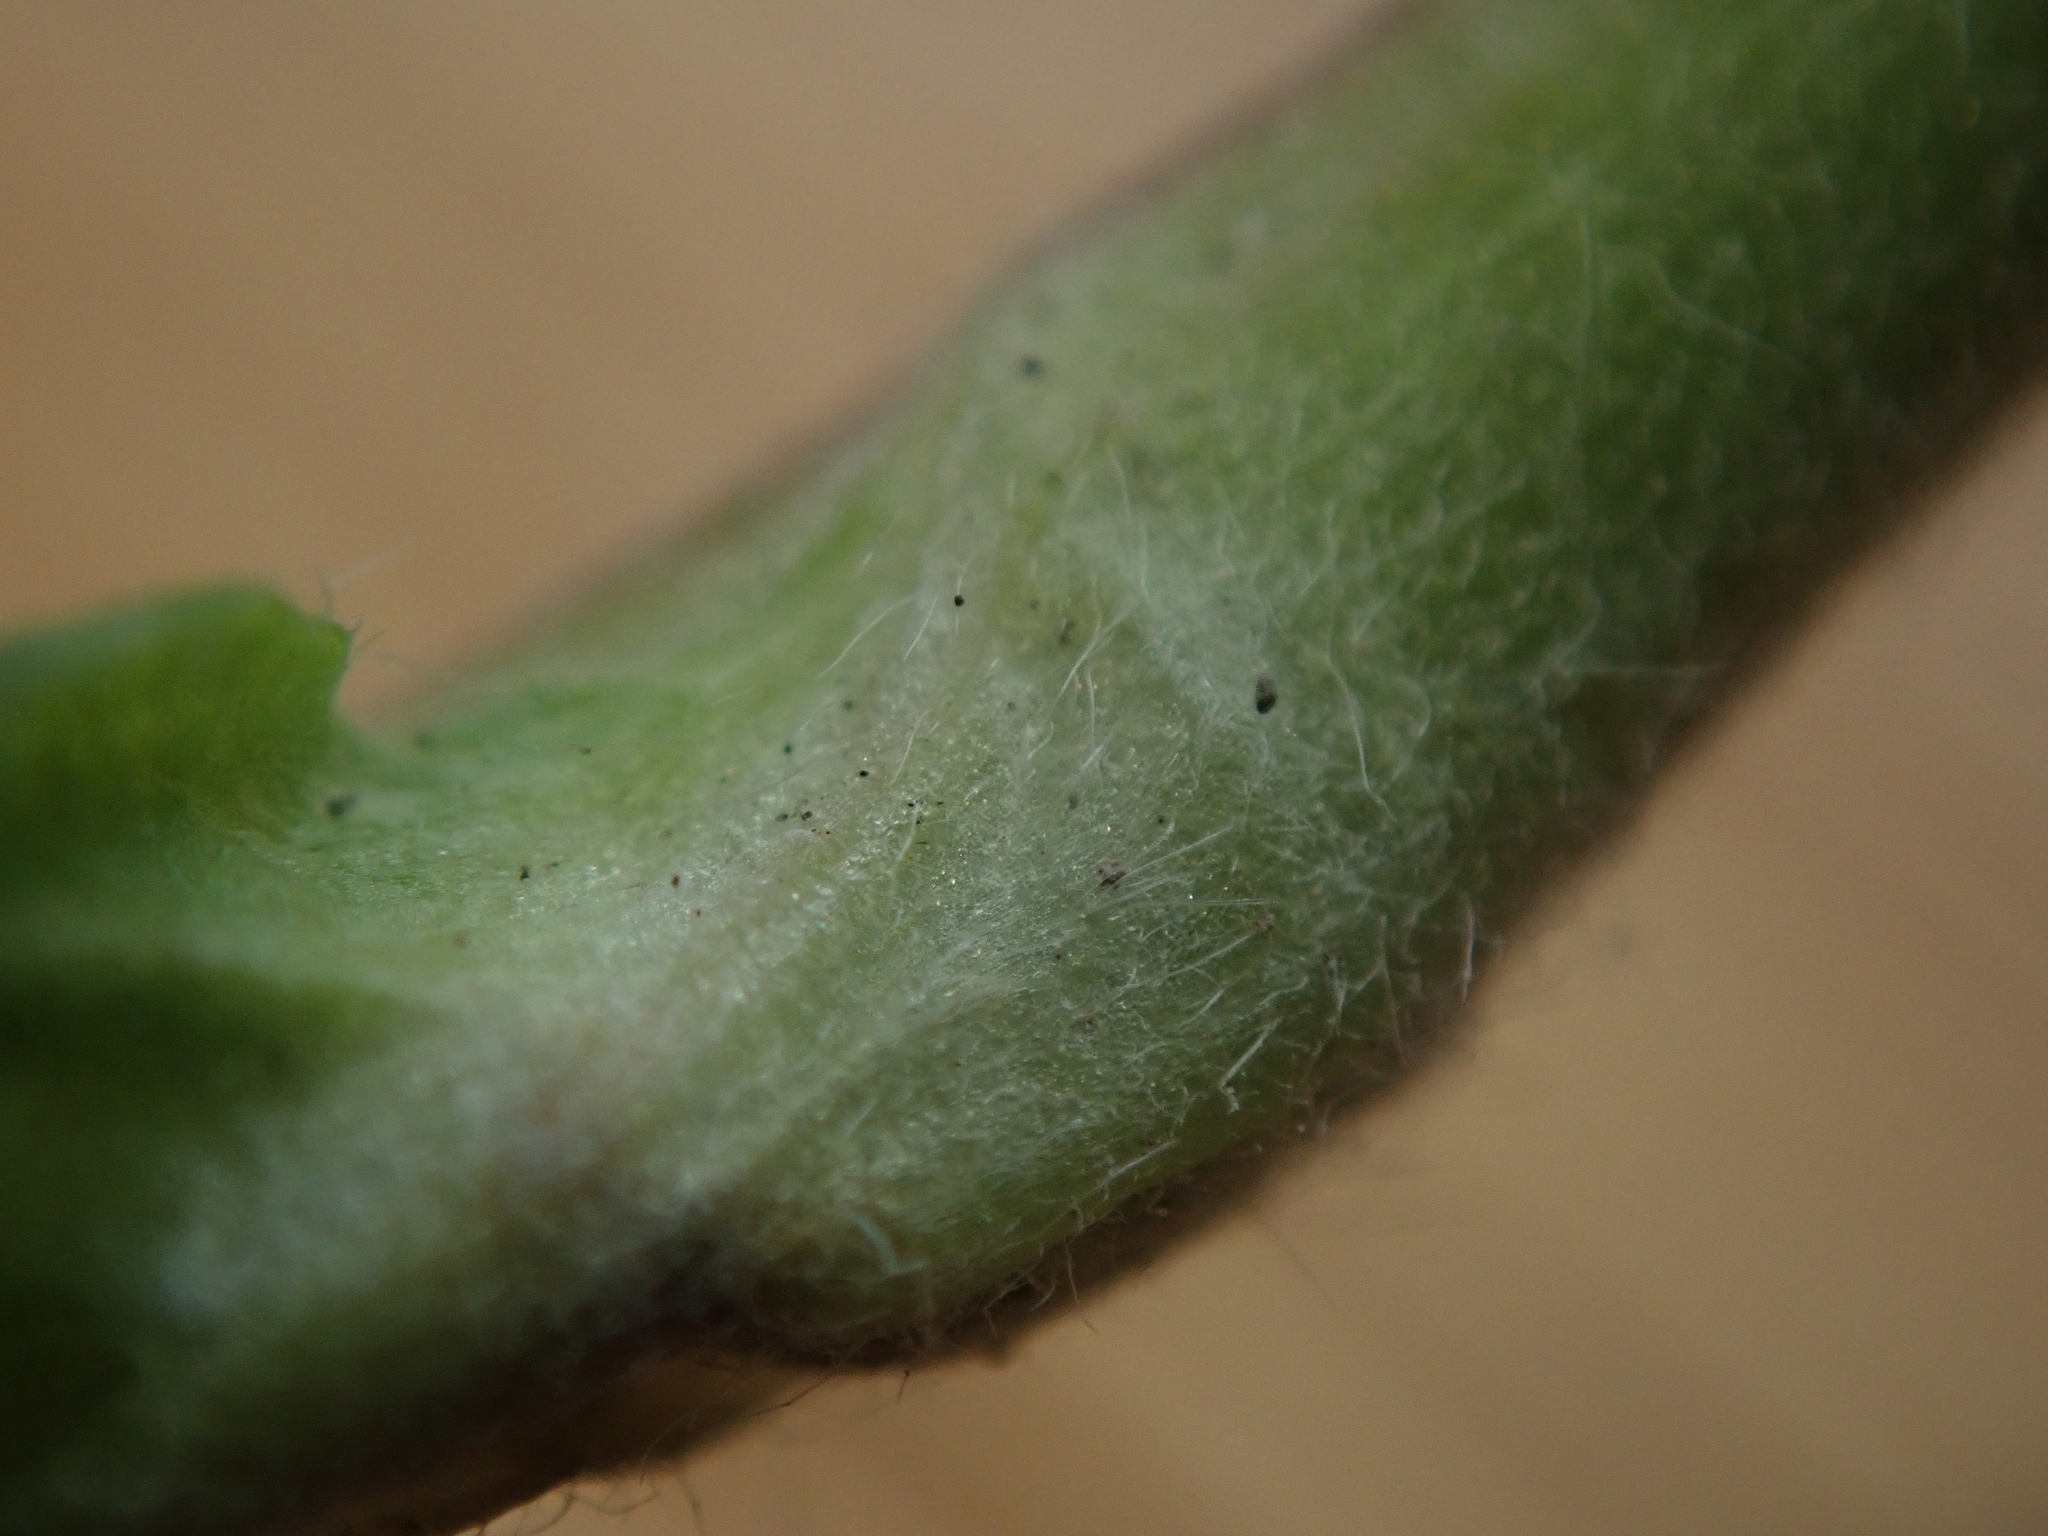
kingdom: Plantae
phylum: Tracheophyta
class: Magnoliopsida
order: Rosales
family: Rosaceae
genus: Potentilla
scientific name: Potentilla rivalis
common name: Brook cinquefoil
